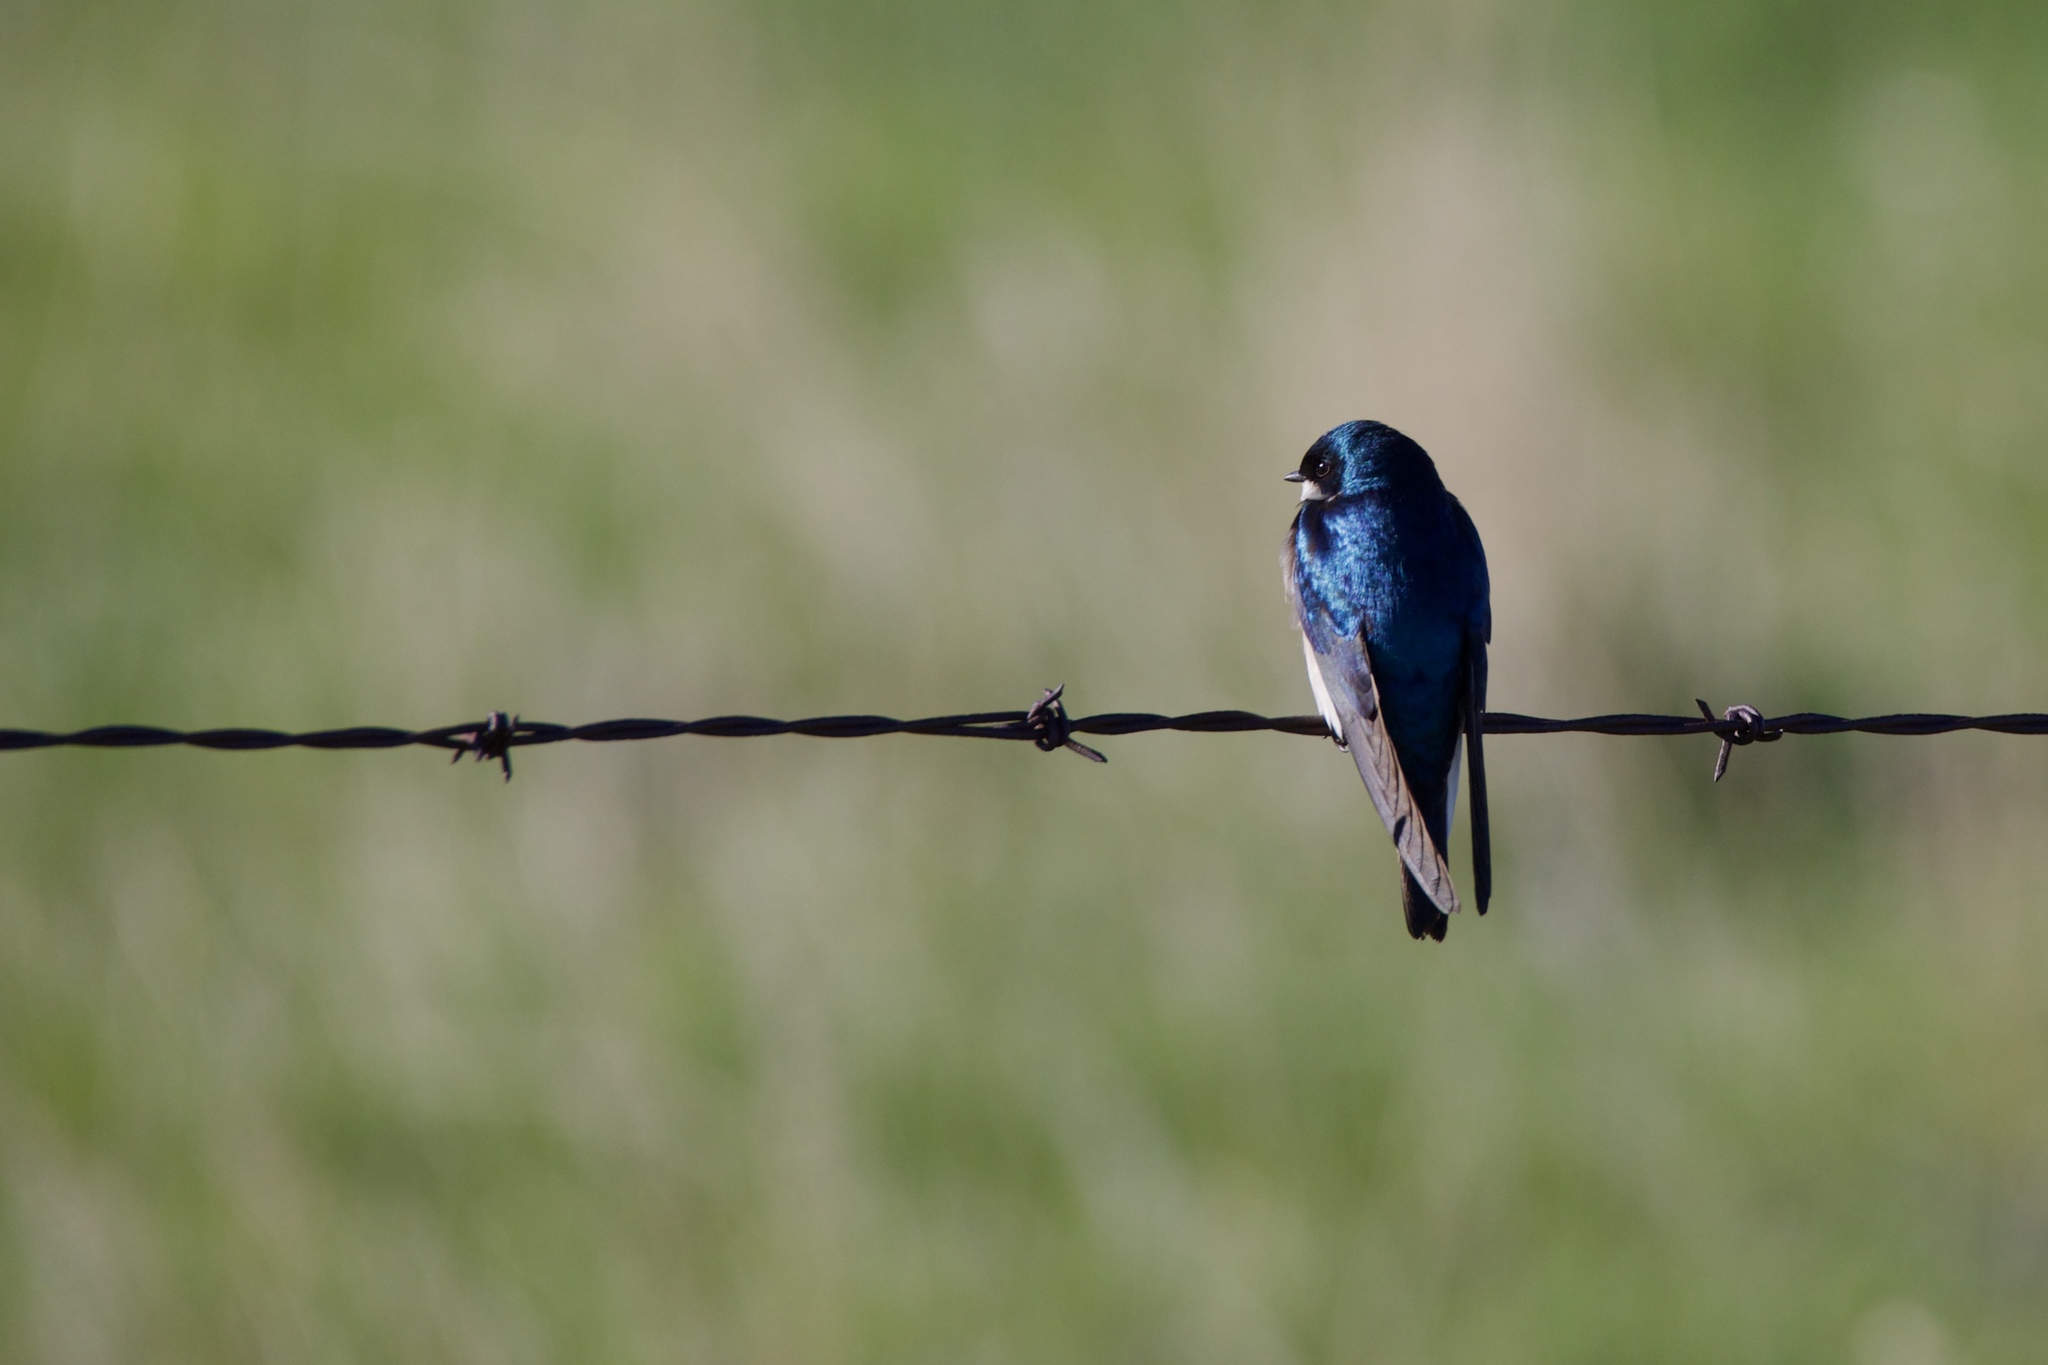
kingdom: Animalia
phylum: Chordata
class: Aves
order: Passeriformes
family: Hirundinidae
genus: Tachycineta
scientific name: Tachycineta bicolor
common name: Tree swallow
